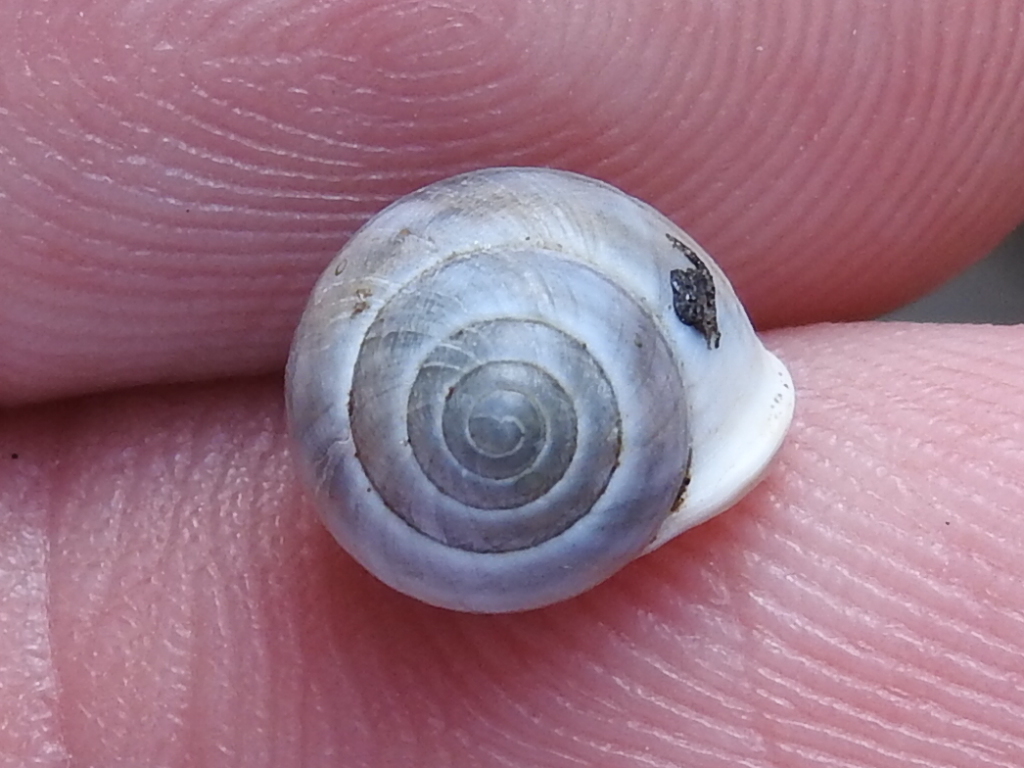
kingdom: Animalia
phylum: Mollusca
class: Gastropoda
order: Cycloneritida
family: Helicinidae
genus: Helicina
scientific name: Helicina orbiculata
